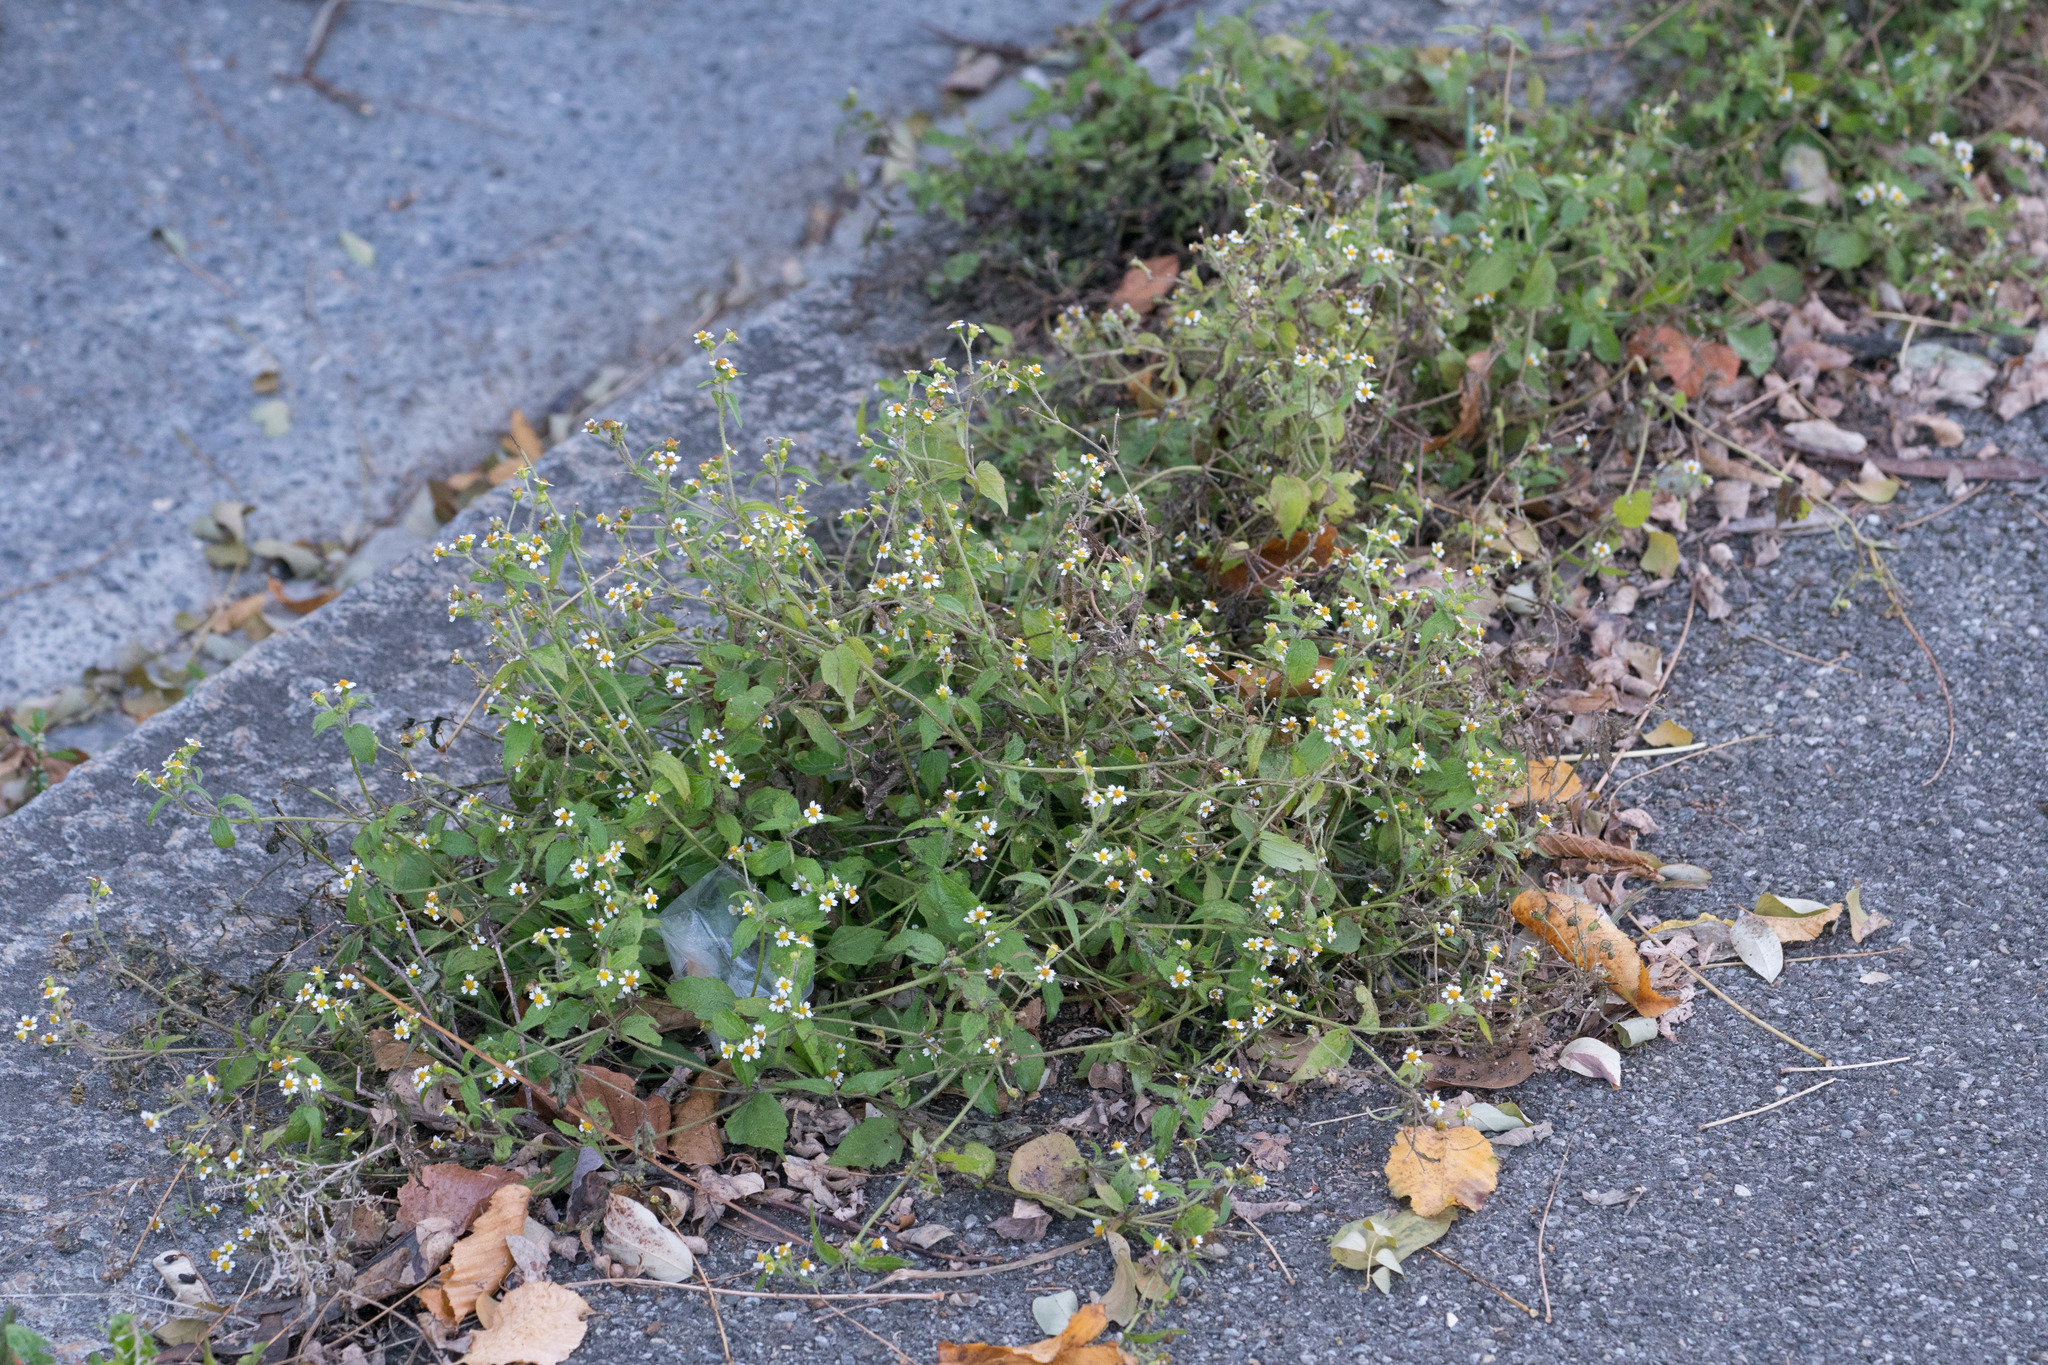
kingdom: Plantae
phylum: Tracheophyta
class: Magnoliopsida
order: Asterales
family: Asteraceae
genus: Galinsoga
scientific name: Galinsoga quadriradiata
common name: Shaggy soldier
